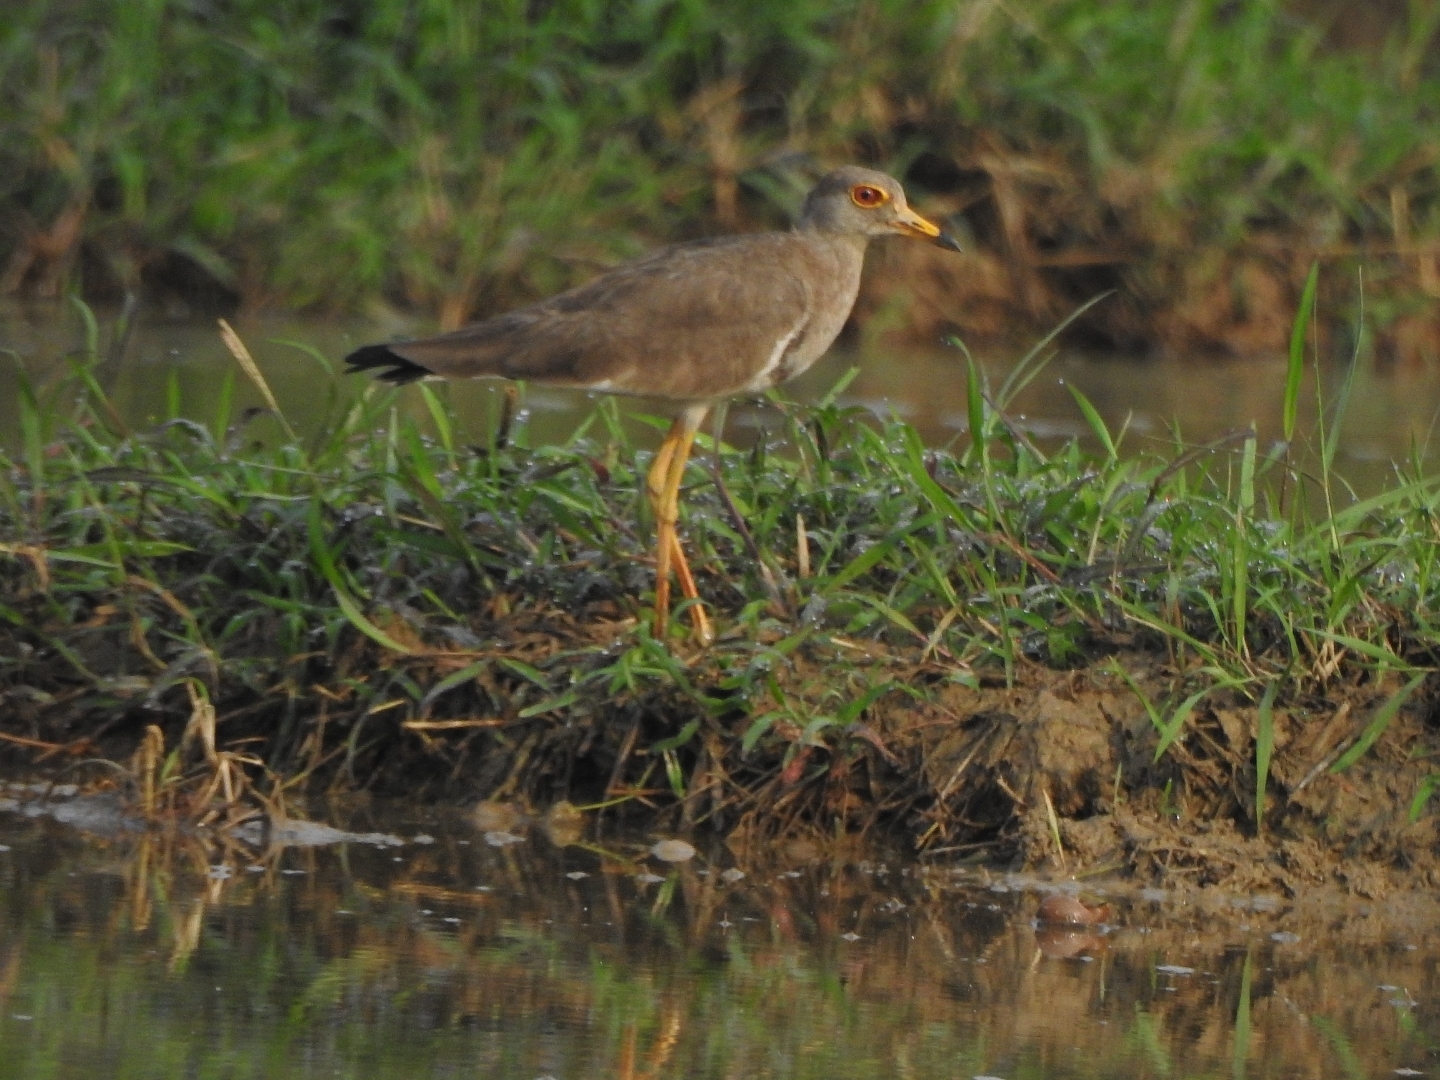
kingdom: Animalia
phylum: Chordata
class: Aves
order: Charadriiformes
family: Charadriidae
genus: Vanellus
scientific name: Vanellus cinereus
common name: Grey-headed lapwing
